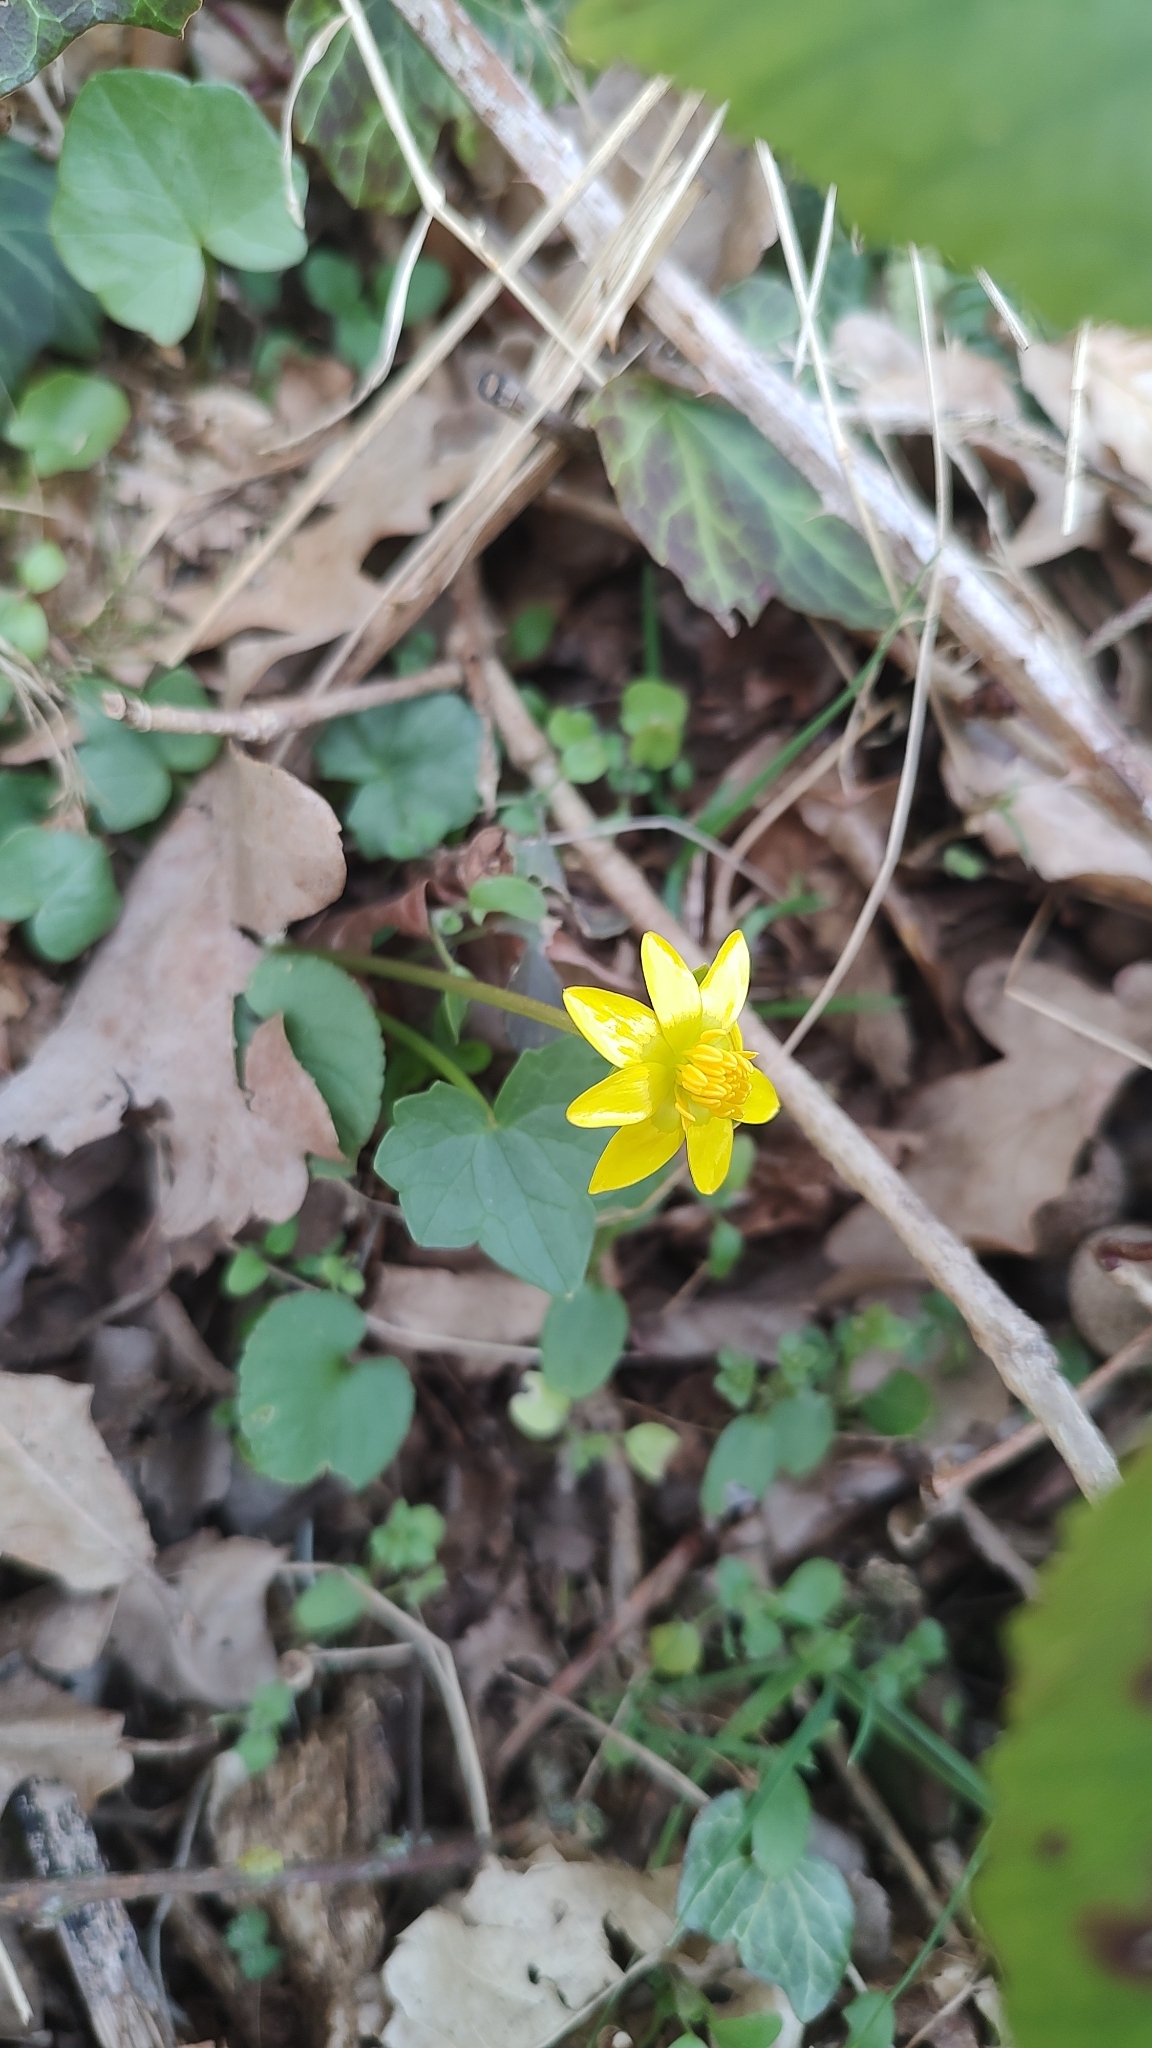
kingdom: Plantae
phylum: Tracheophyta
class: Magnoliopsida
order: Ranunculales
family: Ranunculaceae
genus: Ficaria
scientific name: Ficaria verna
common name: Lesser celandine
